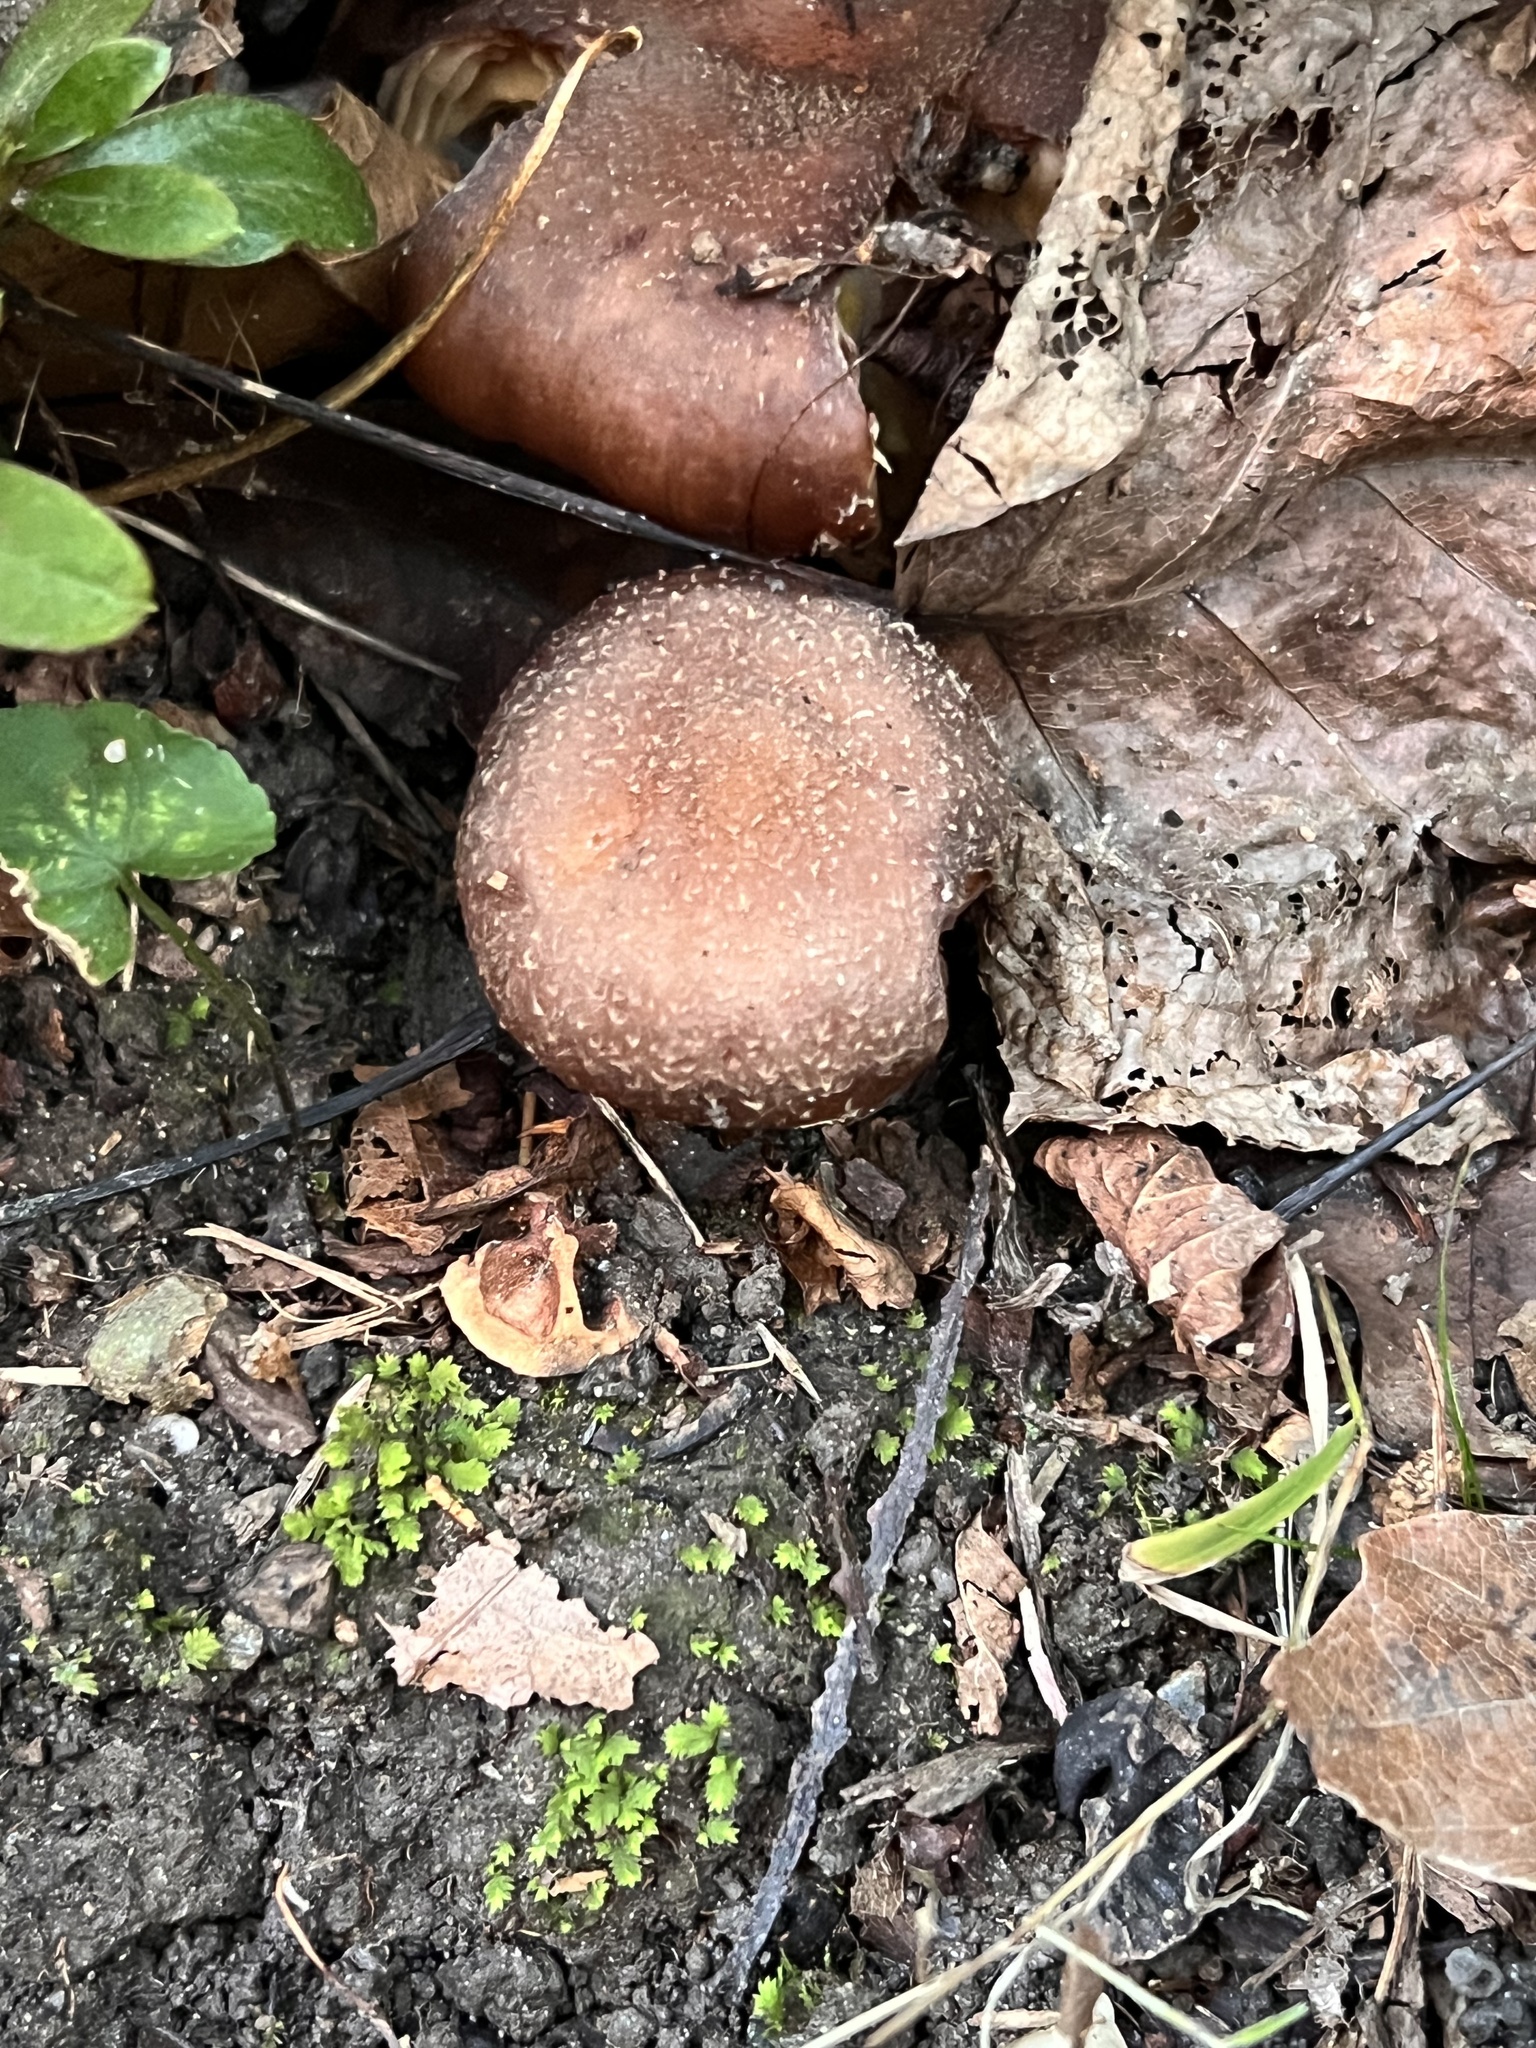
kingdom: Fungi
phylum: Basidiomycota
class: Agaricomycetes
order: Agaricales
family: Physalacriaceae
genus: Armillaria
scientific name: Armillaria gallica
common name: Bulbous honey fungus
